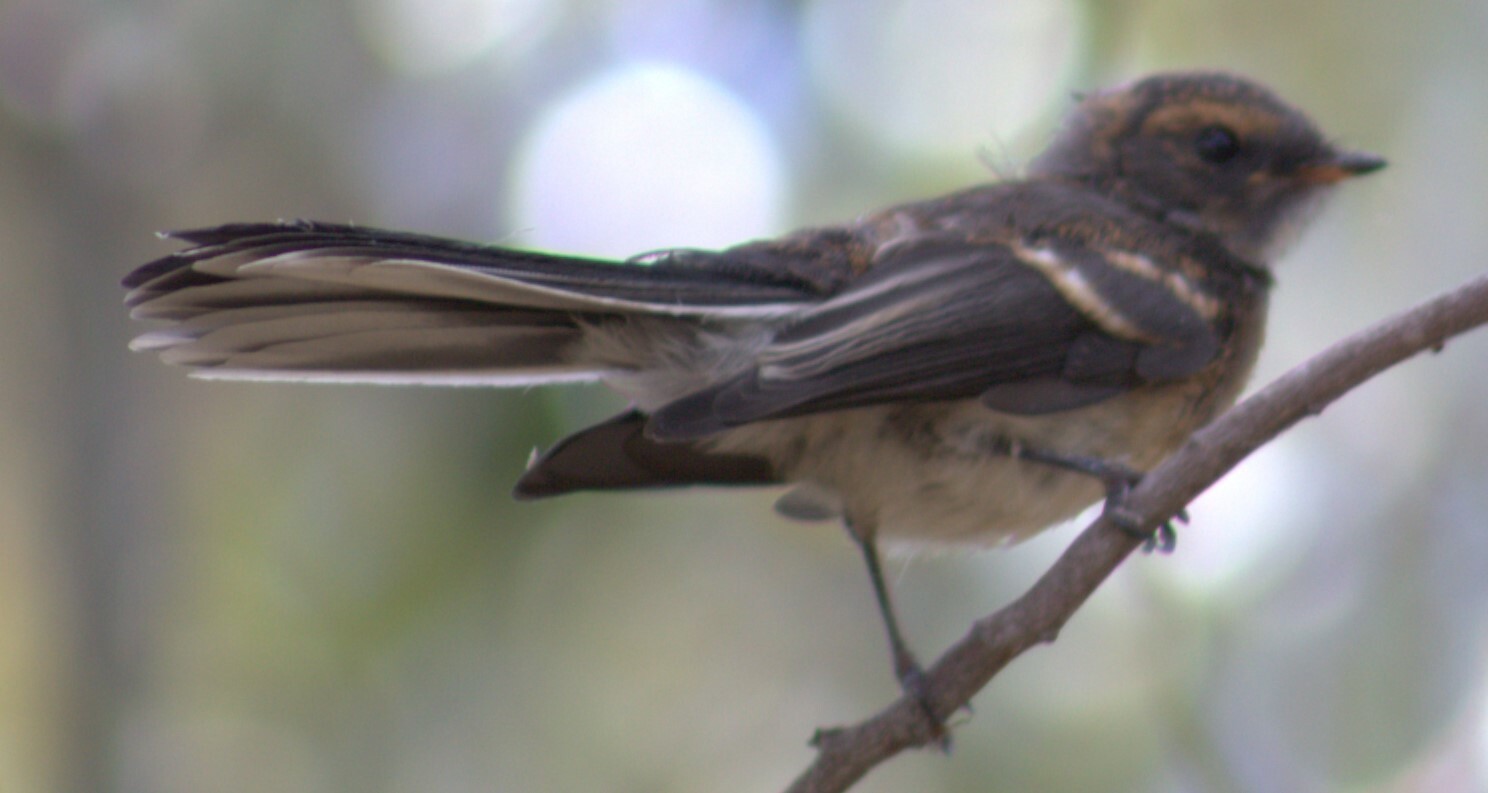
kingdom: Animalia
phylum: Chordata
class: Aves
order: Passeriformes
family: Rhipiduridae
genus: Rhipidura
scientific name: Rhipidura albiscapa
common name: Grey fantail
